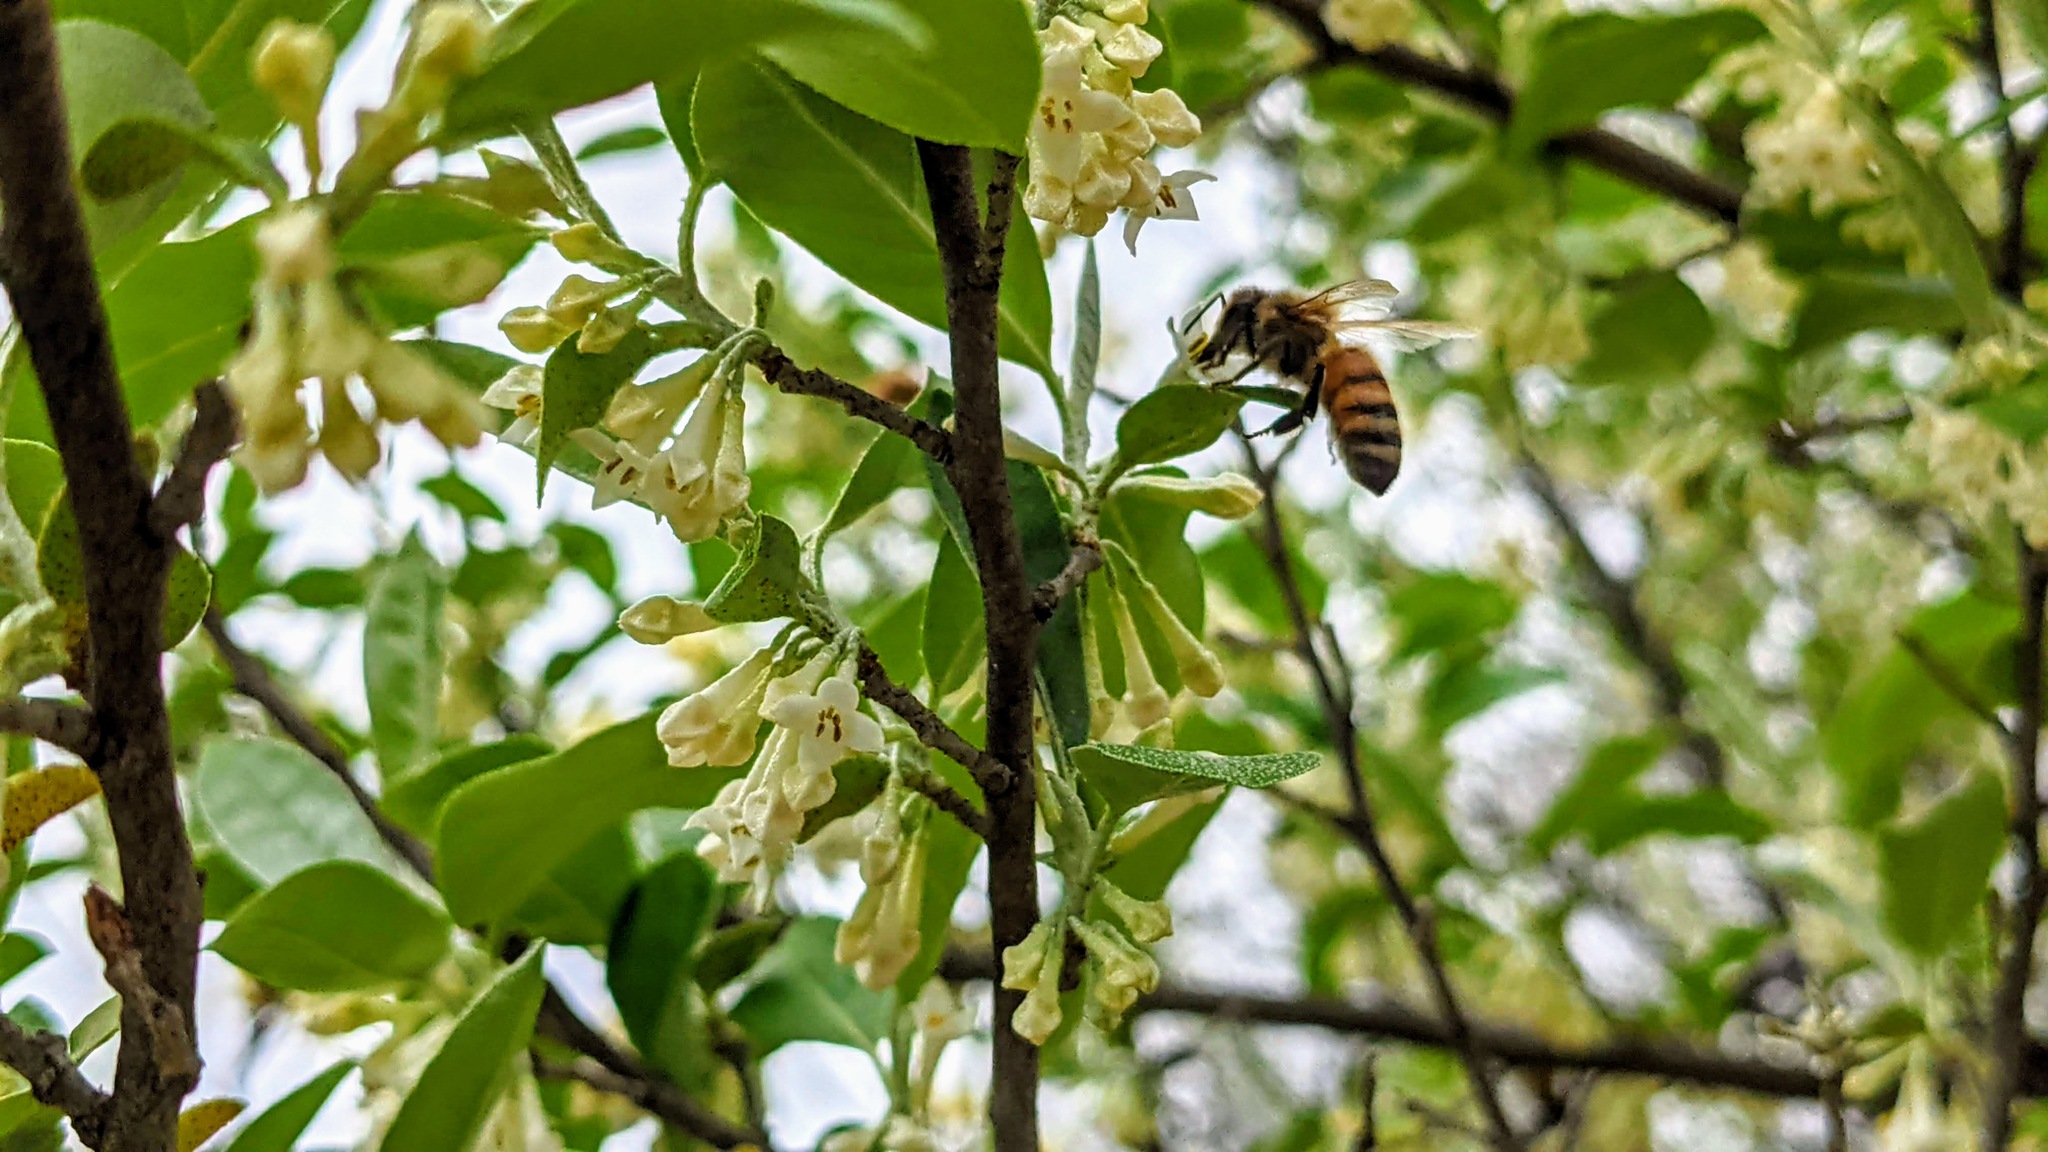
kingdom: Plantae
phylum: Tracheophyta
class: Magnoliopsida
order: Rosales
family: Elaeagnaceae
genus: Elaeagnus
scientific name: Elaeagnus umbellata
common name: Autumn olive
